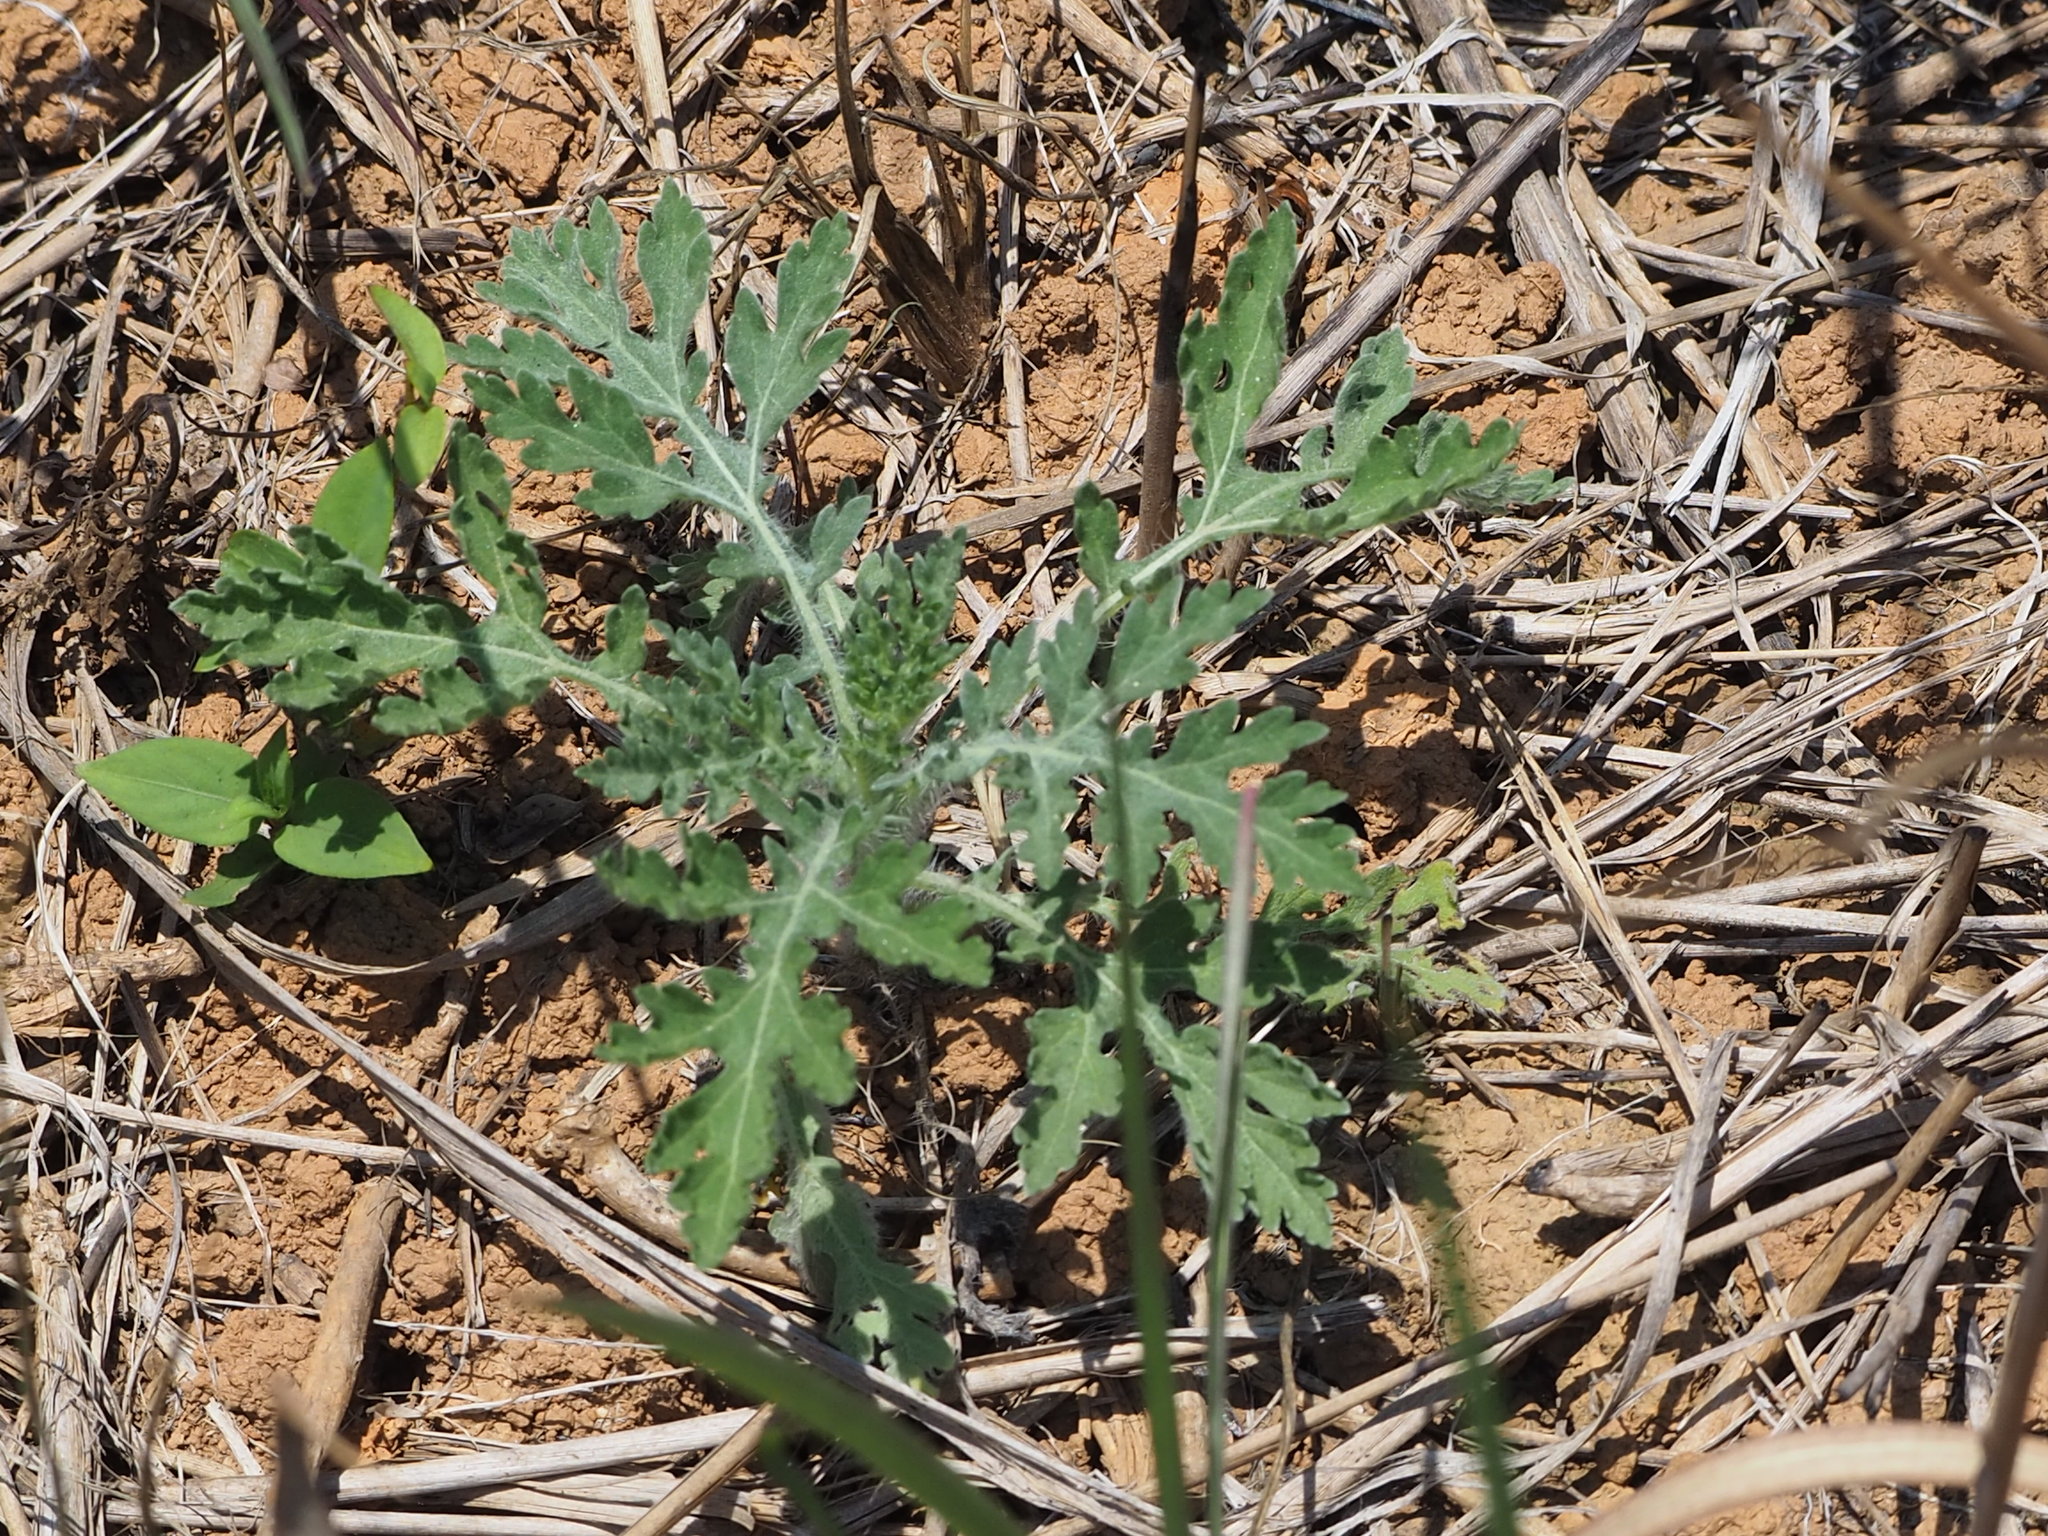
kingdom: Plantae
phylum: Tracheophyta
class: Magnoliopsida
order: Asterales
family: Asteraceae
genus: Parthenium
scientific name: Parthenium hysterophorus
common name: Santa maria feverfew
